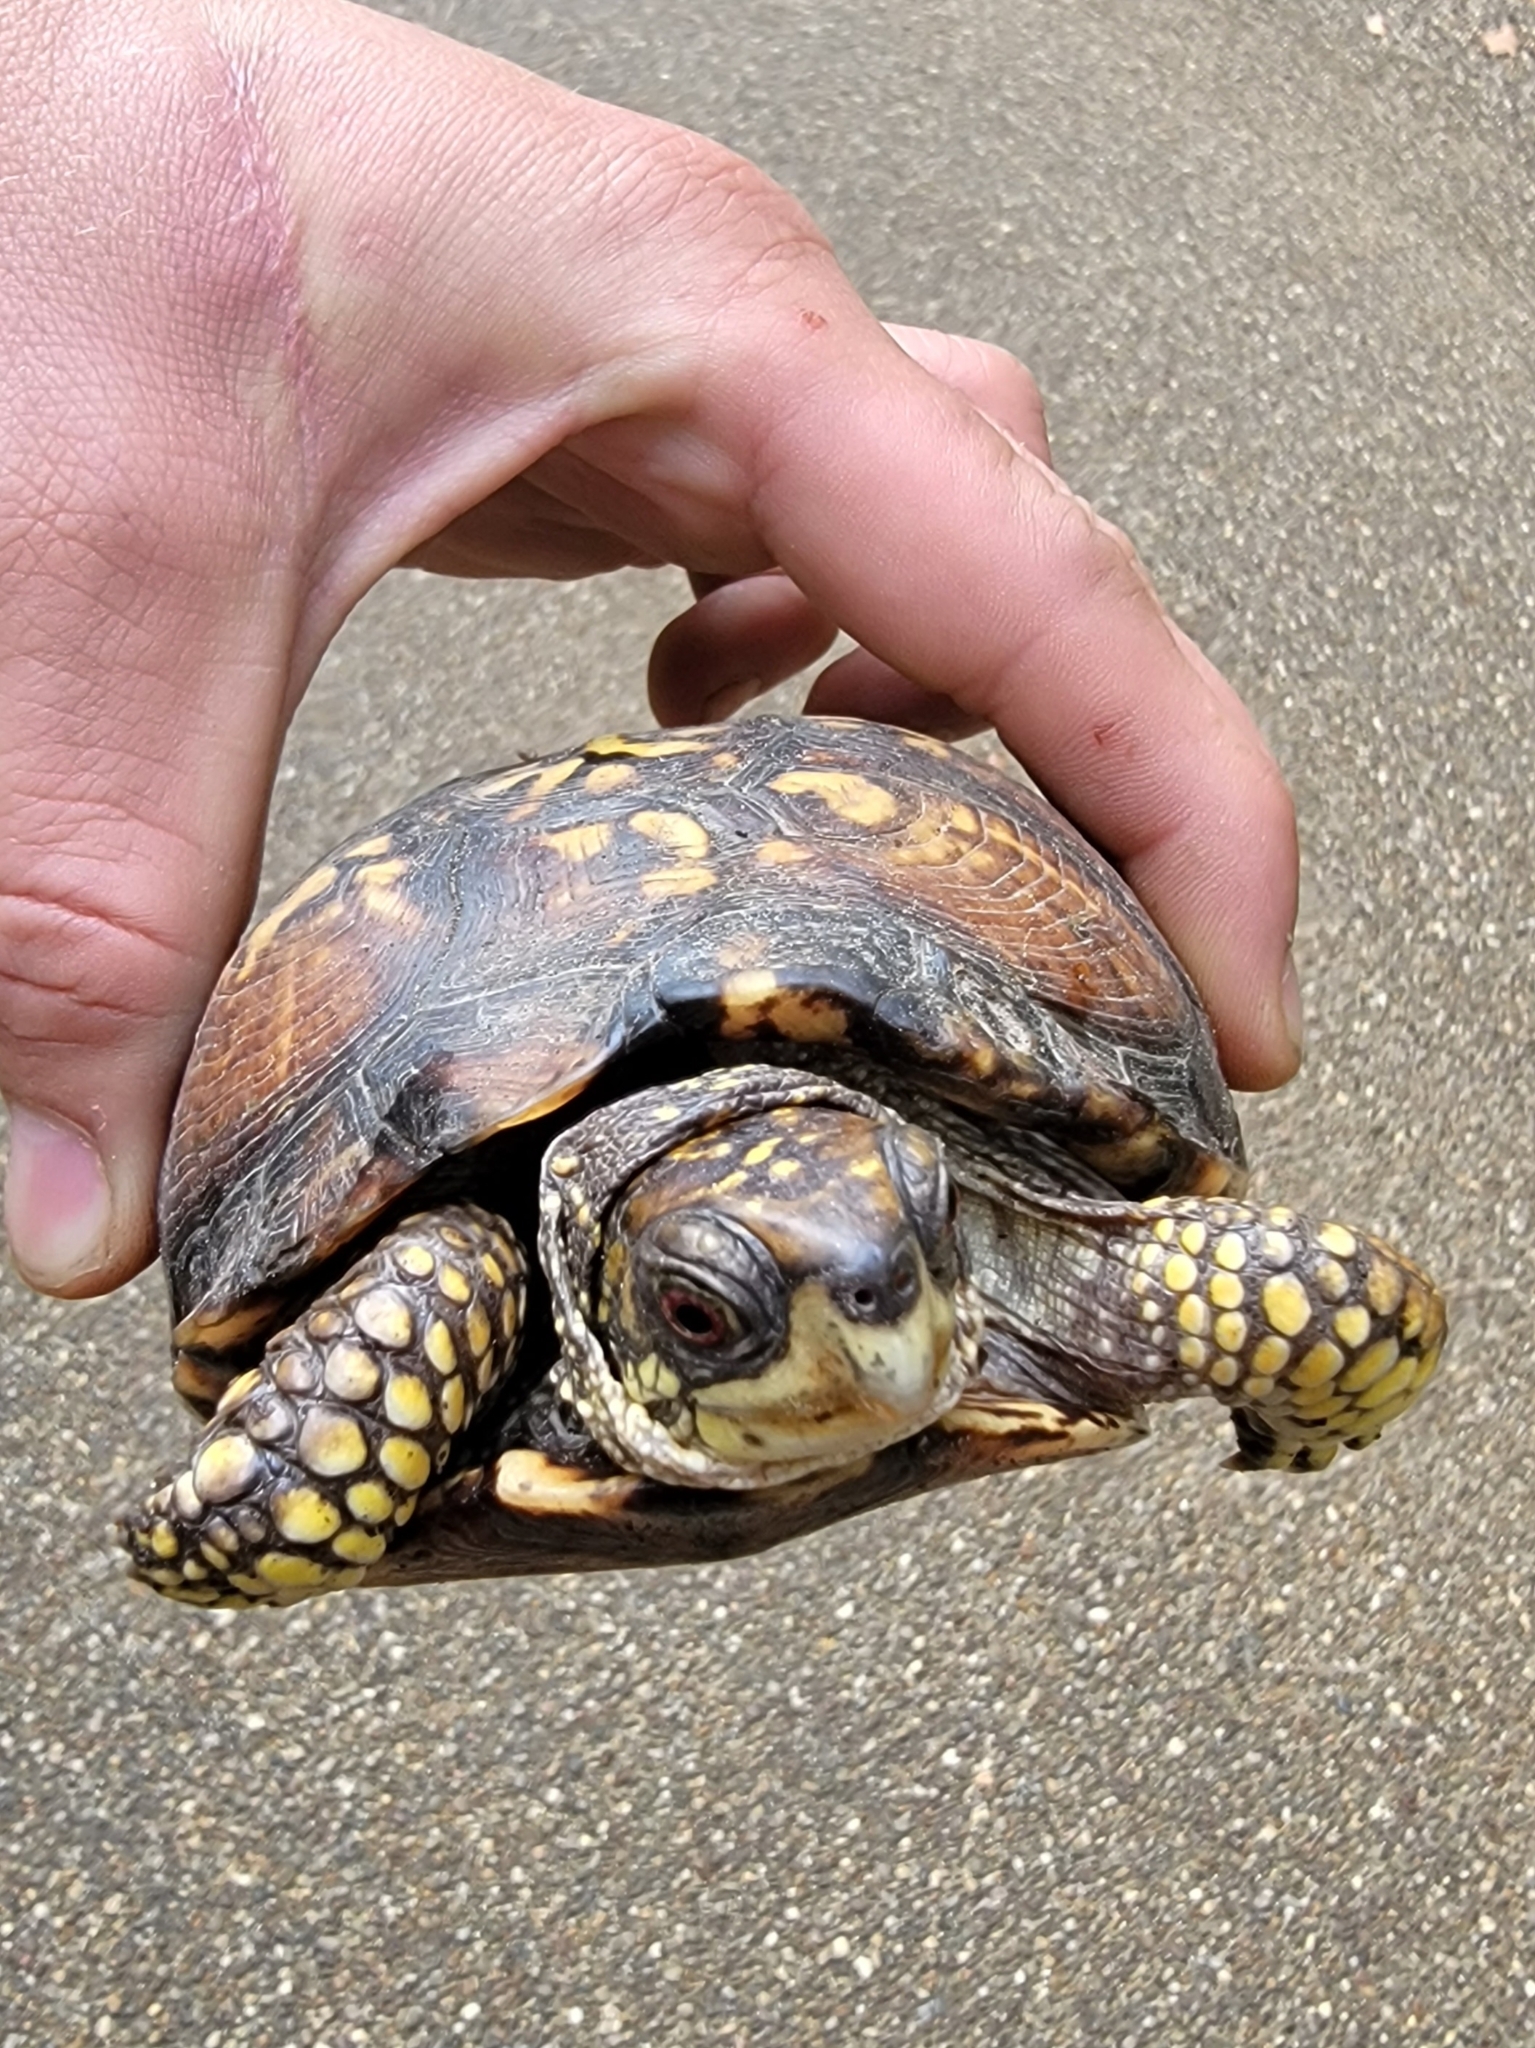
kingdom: Animalia
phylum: Chordata
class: Testudines
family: Emydidae
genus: Terrapene
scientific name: Terrapene carolina
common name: Common box turtle
